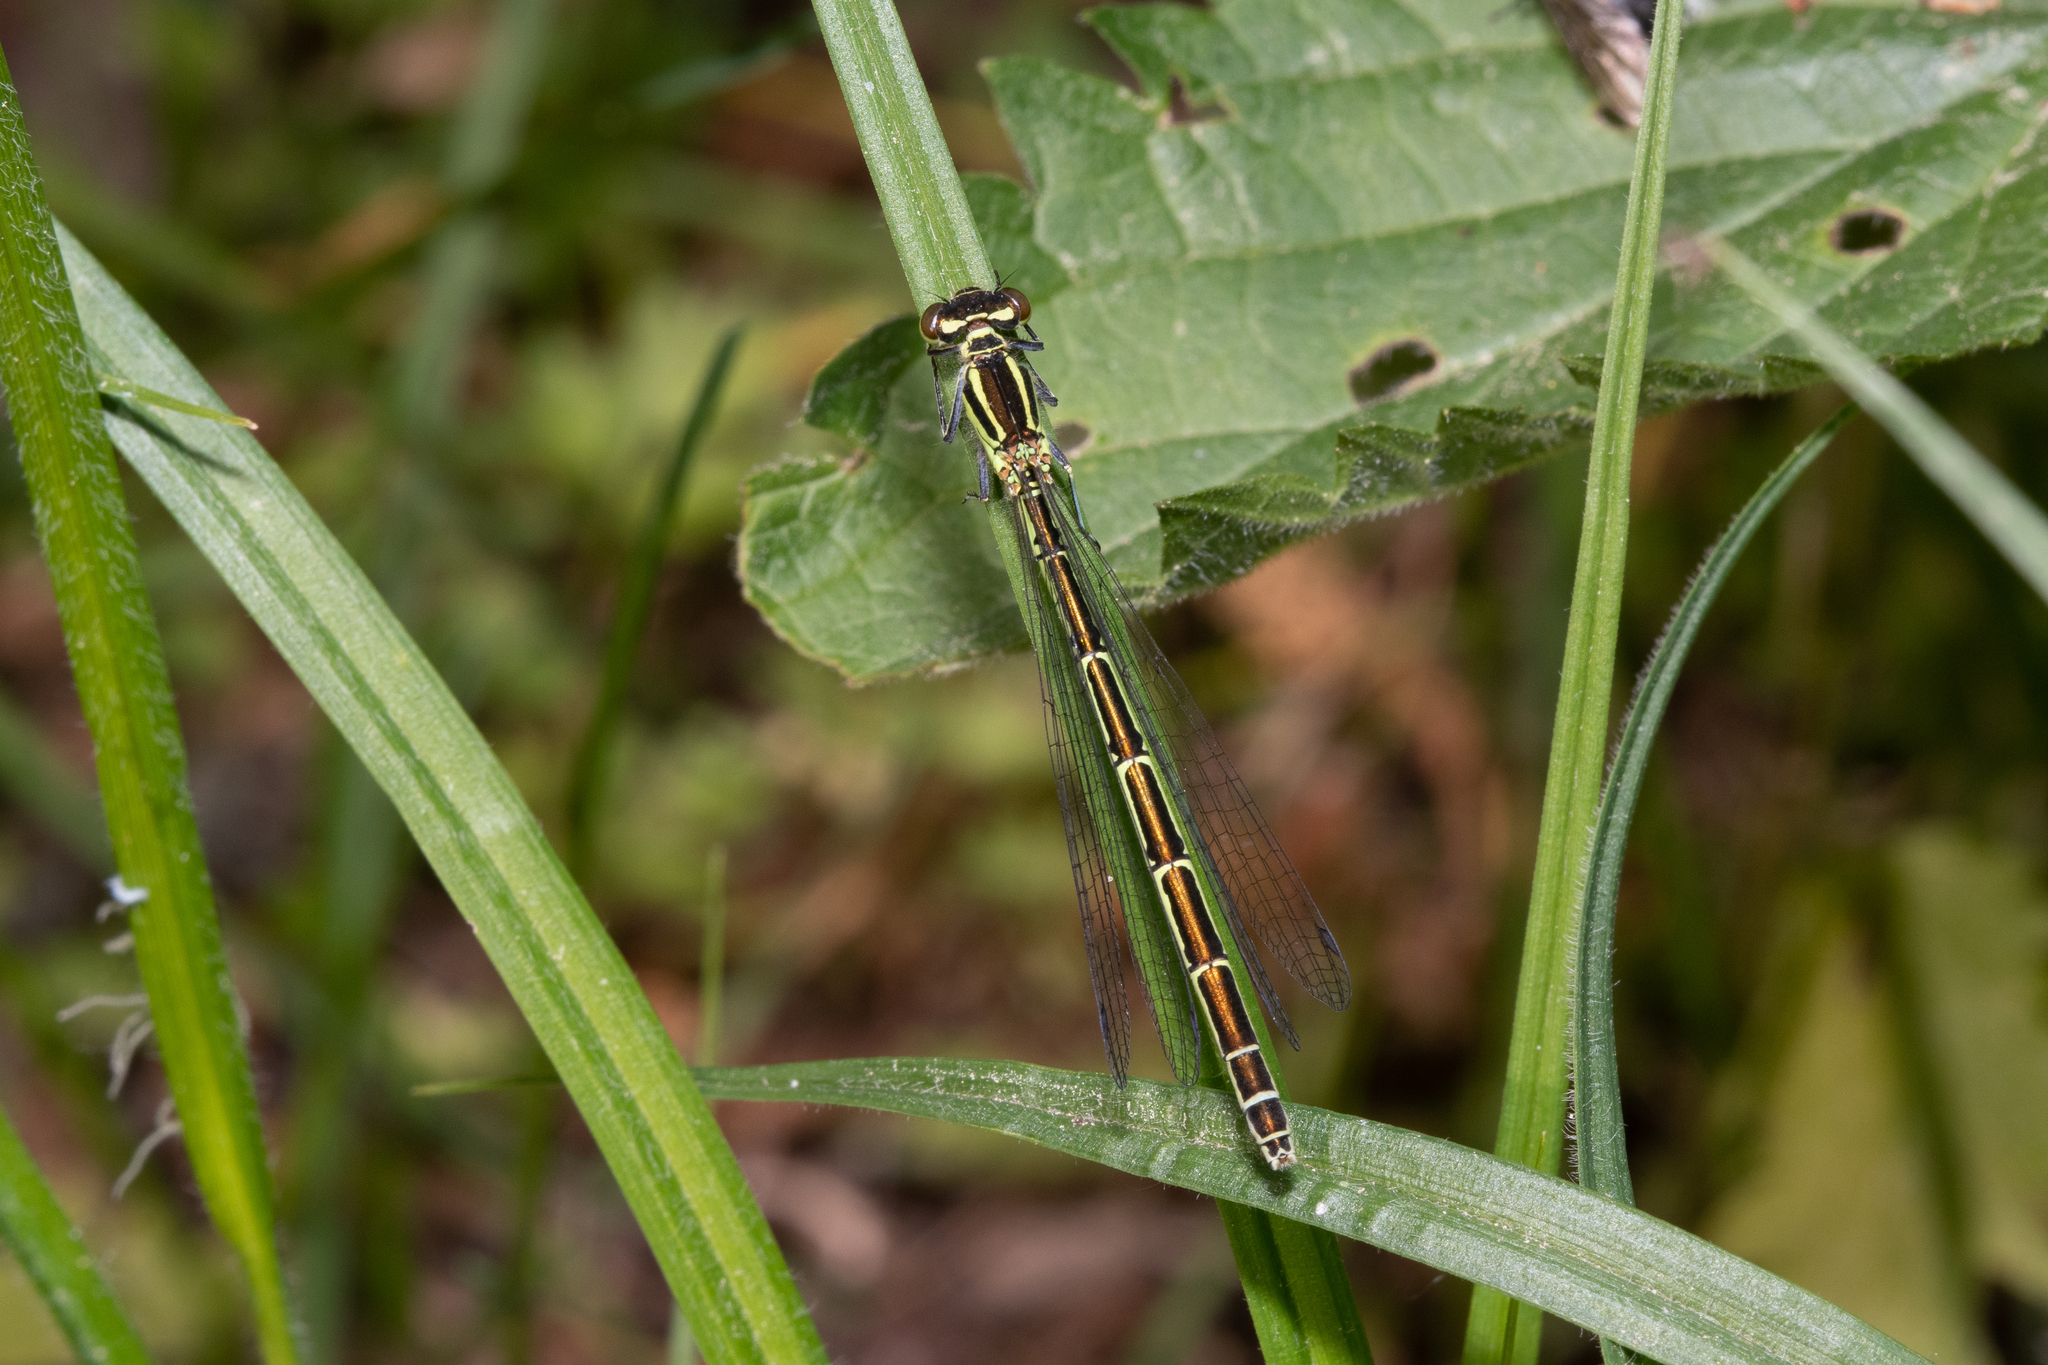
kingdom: Animalia
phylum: Arthropoda
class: Insecta
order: Odonata
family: Coenagrionidae
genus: Coenagrion
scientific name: Coenagrion hastulatum
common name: Spearhead bluet
